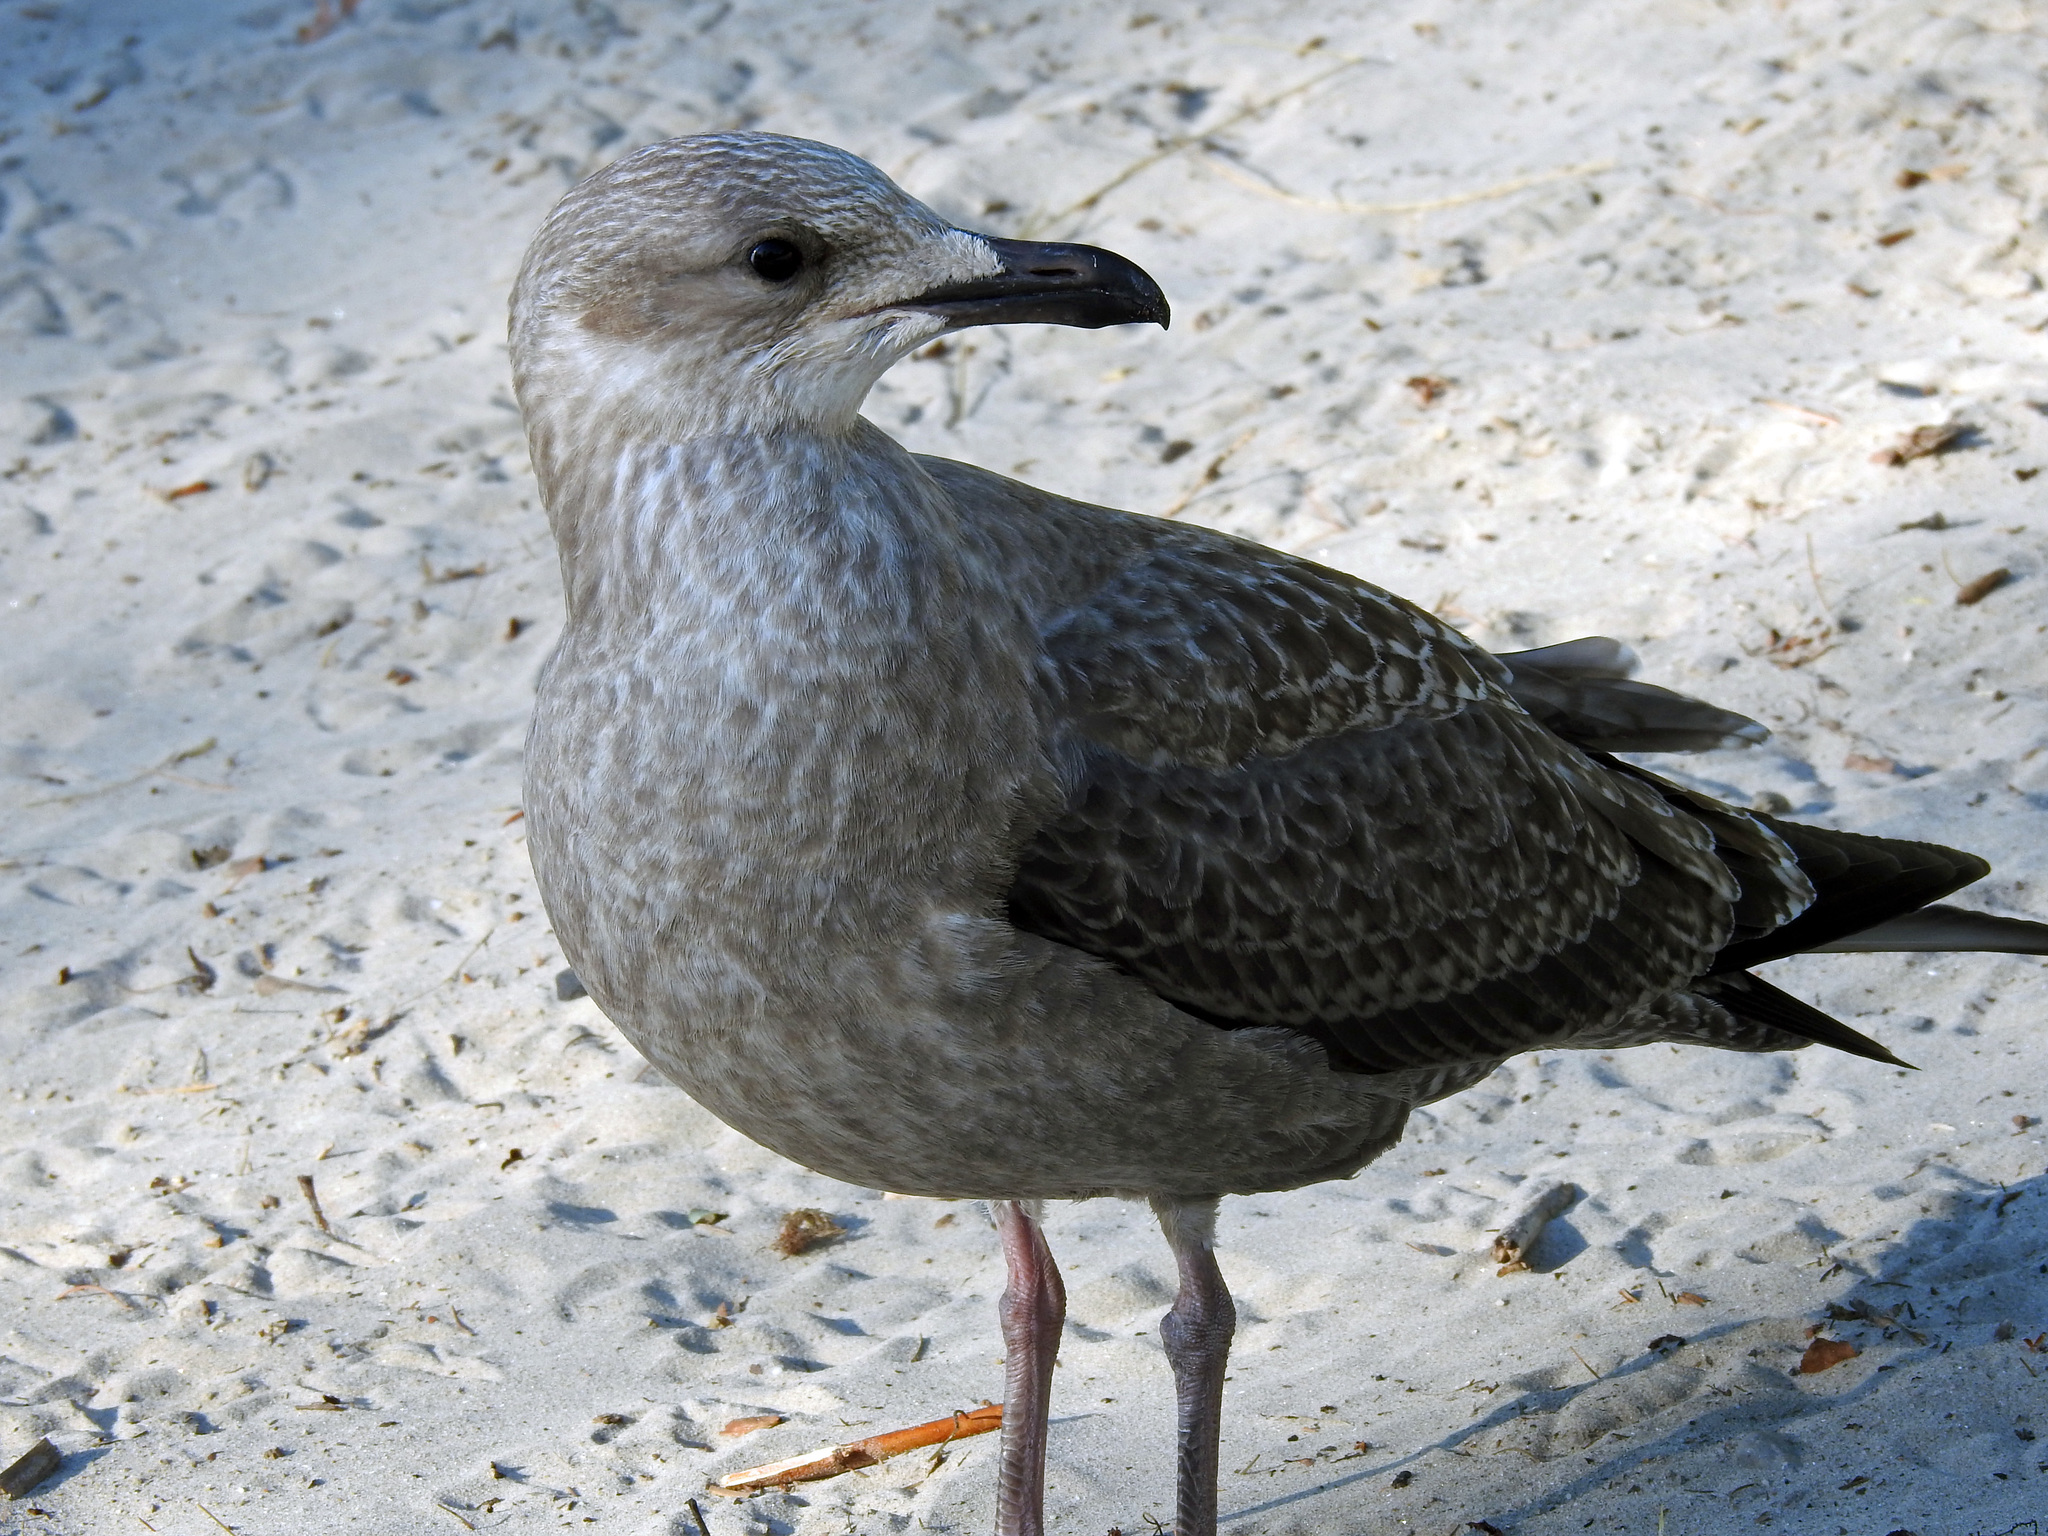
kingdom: Animalia
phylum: Chordata
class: Aves
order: Charadriiformes
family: Laridae
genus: Larus
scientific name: Larus argentatus
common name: Herring gull
